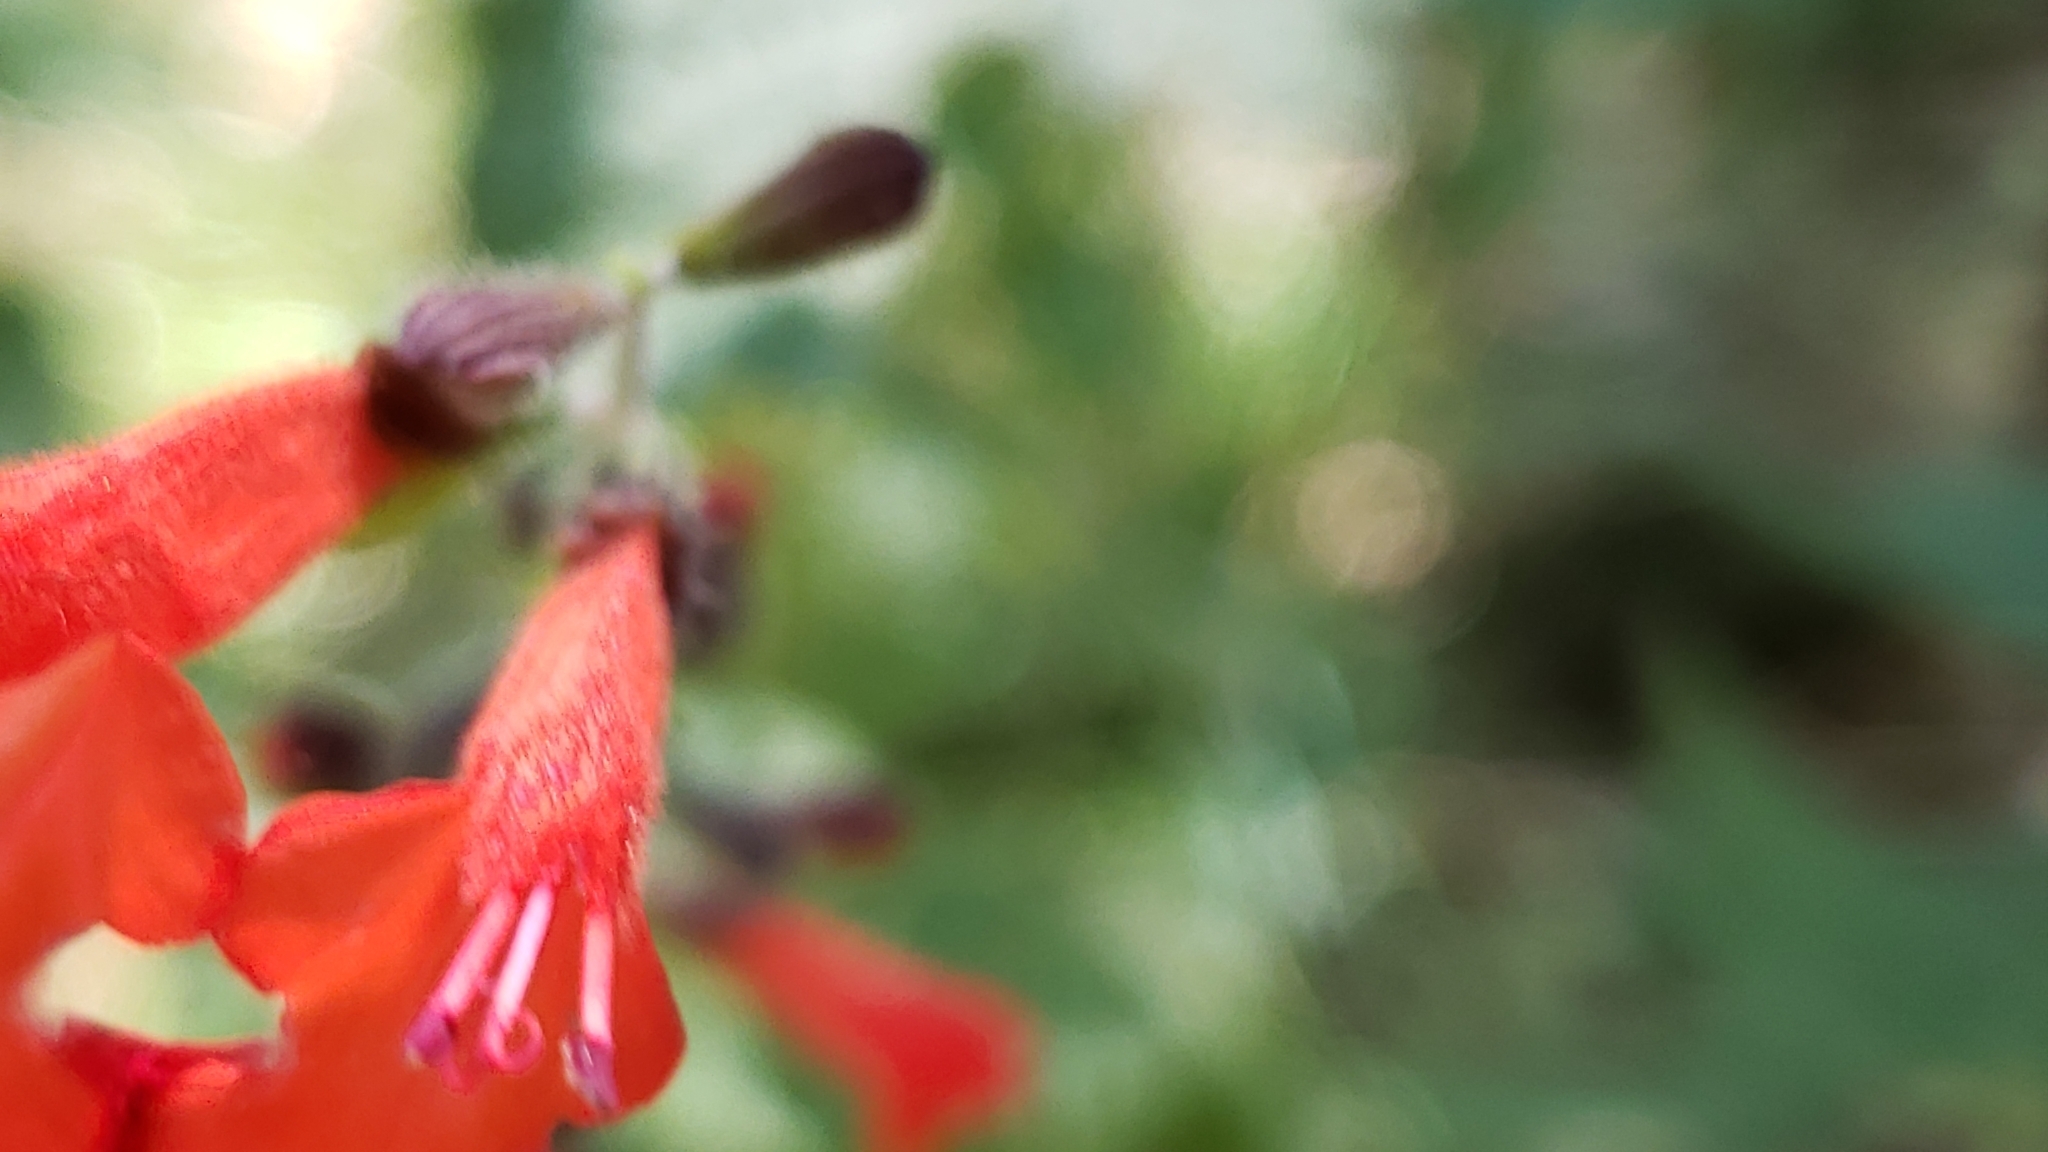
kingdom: Plantae
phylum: Tracheophyta
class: Magnoliopsida
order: Lamiales
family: Lamiaceae
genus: Salvia
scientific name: Salvia coccinea
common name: Blood sage
